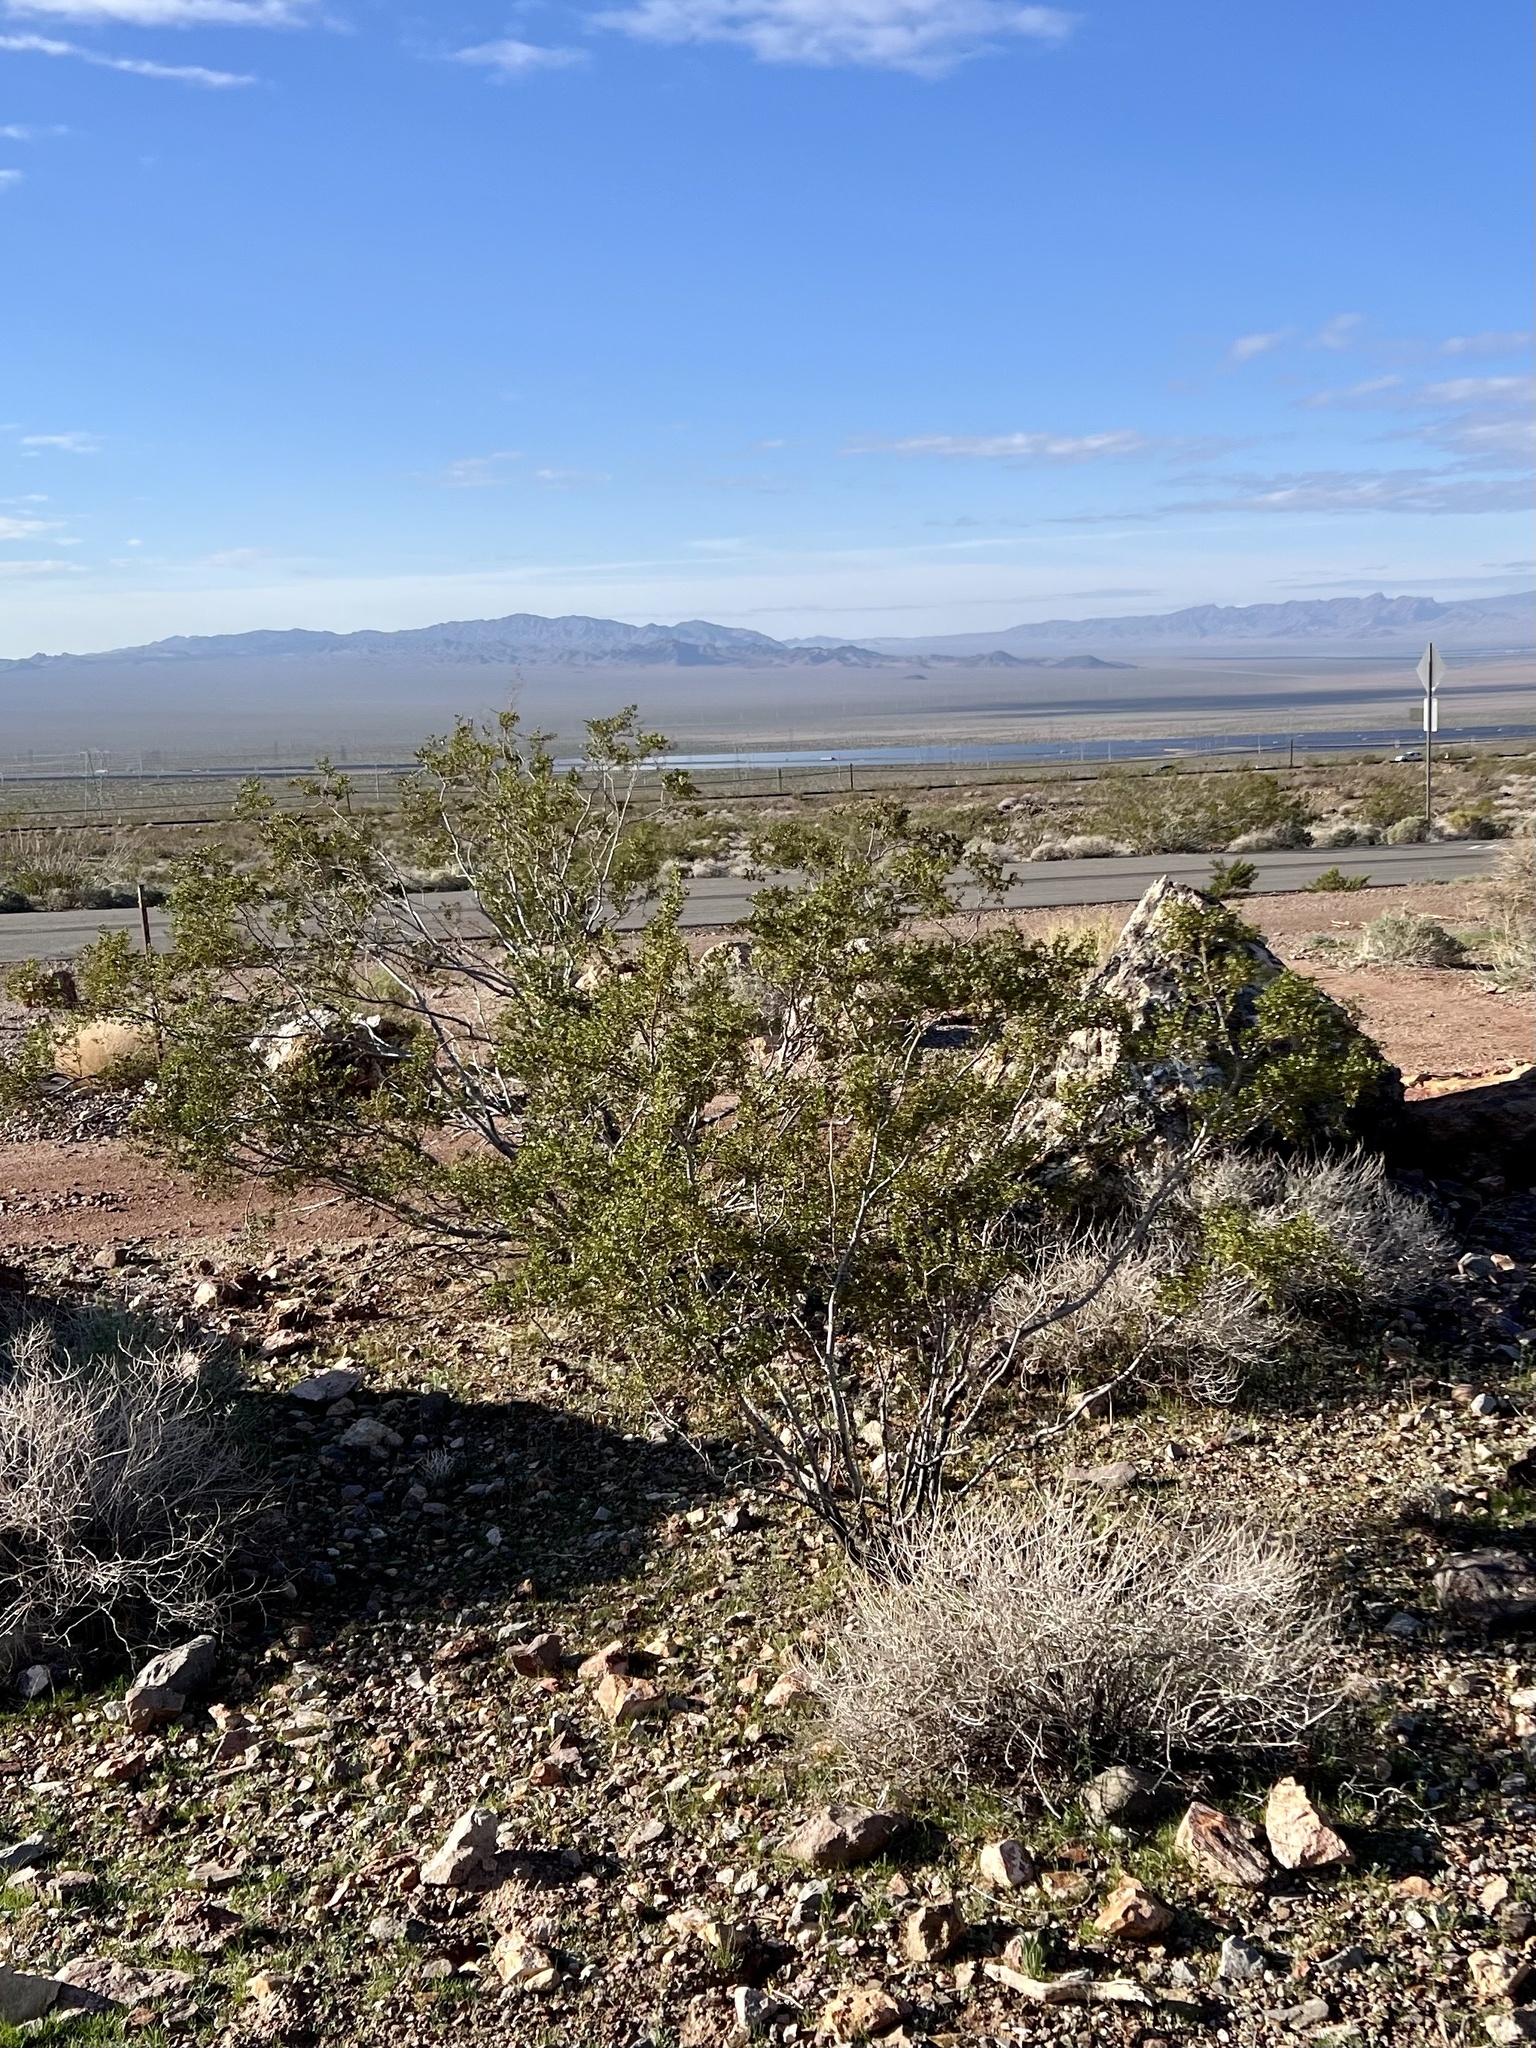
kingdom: Plantae
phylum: Tracheophyta
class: Magnoliopsida
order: Zygophyllales
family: Zygophyllaceae
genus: Larrea
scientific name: Larrea tridentata
